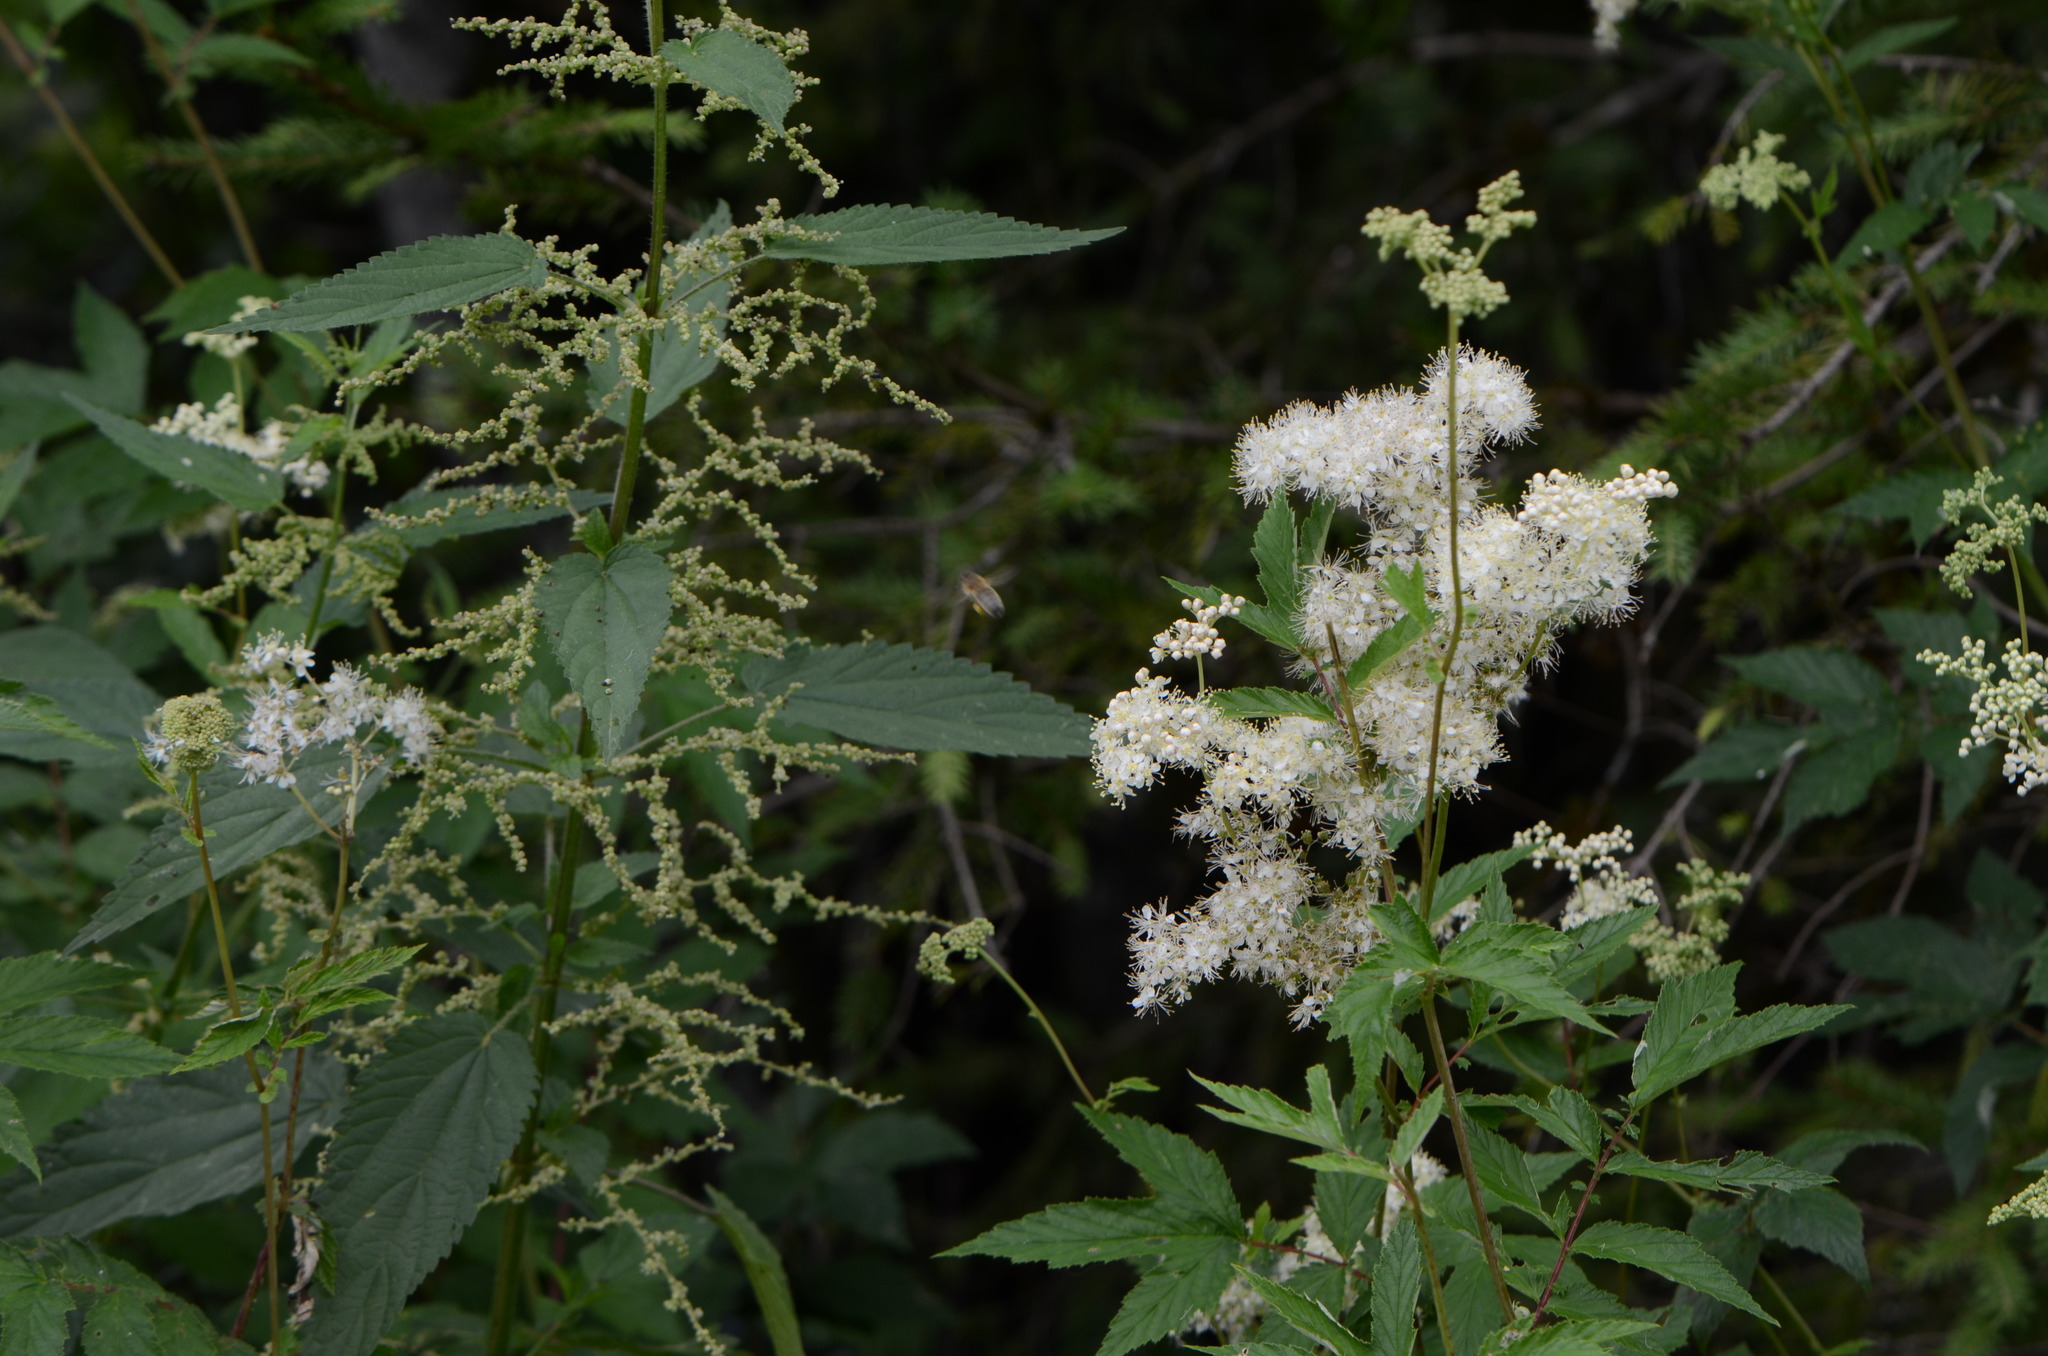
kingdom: Plantae
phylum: Tracheophyta
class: Magnoliopsida
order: Rosales
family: Rosaceae
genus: Filipendula
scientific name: Filipendula ulmaria
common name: Meadowsweet
